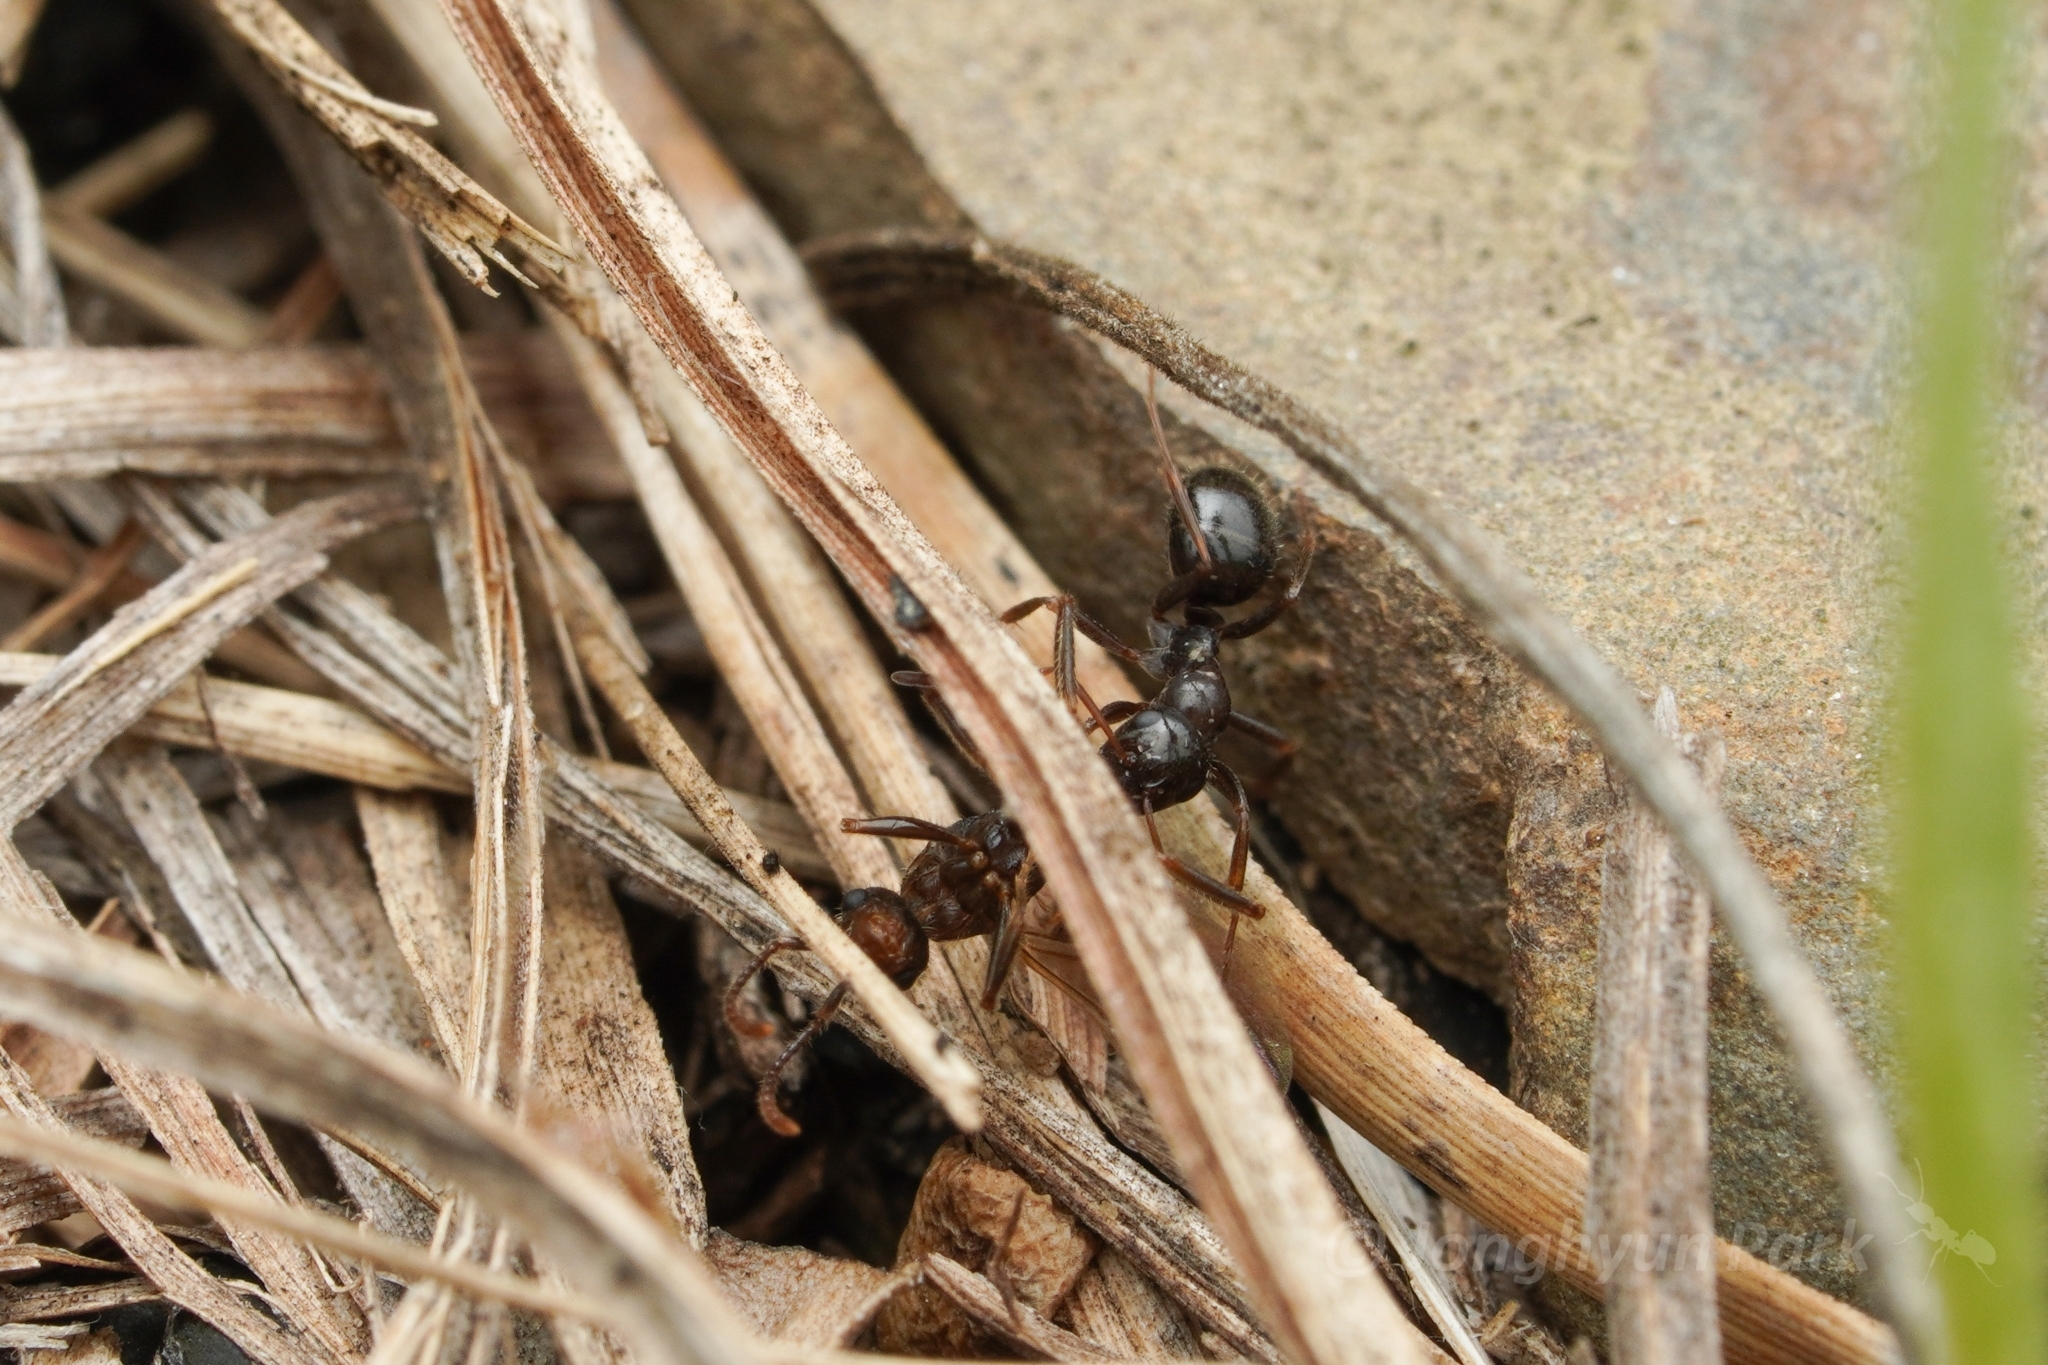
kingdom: Animalia
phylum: Arthropoda
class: Insecta
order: Hymenoptera
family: Formicidae
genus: Formica
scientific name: Formica neogagates
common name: New world black ant
